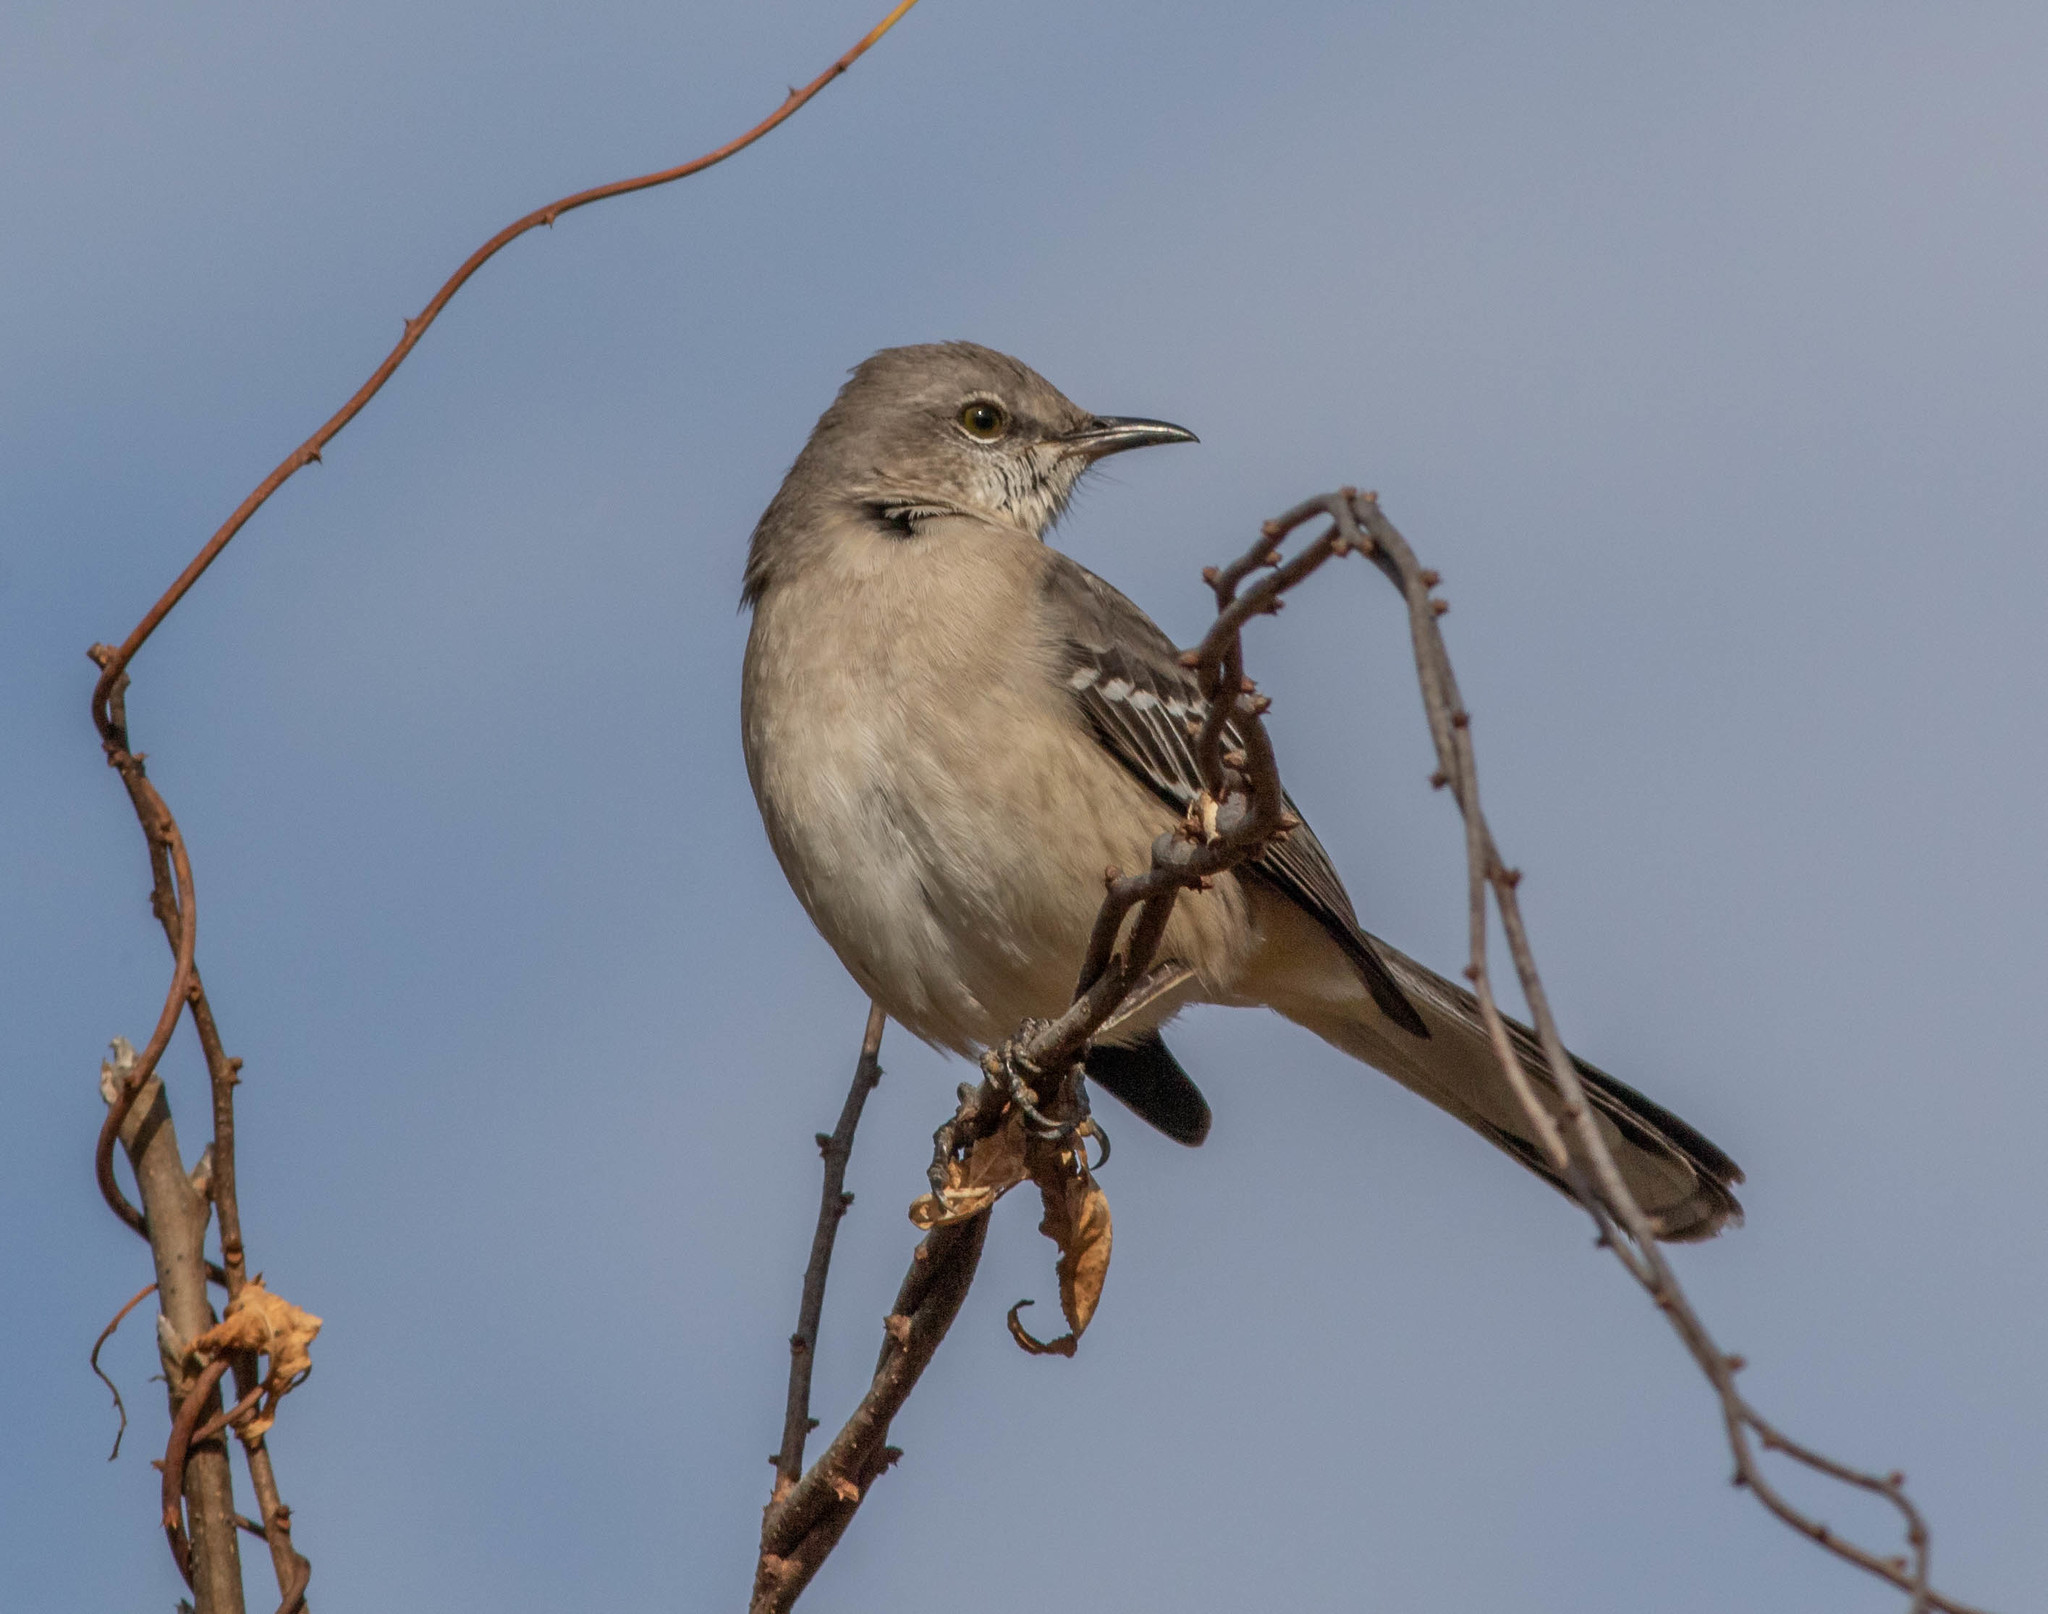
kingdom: Animalia
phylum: Chordata
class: Aves
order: Passeriformes
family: Mimidae
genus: Mimus
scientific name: Mimus polyglottos
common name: Northern mockingbird
